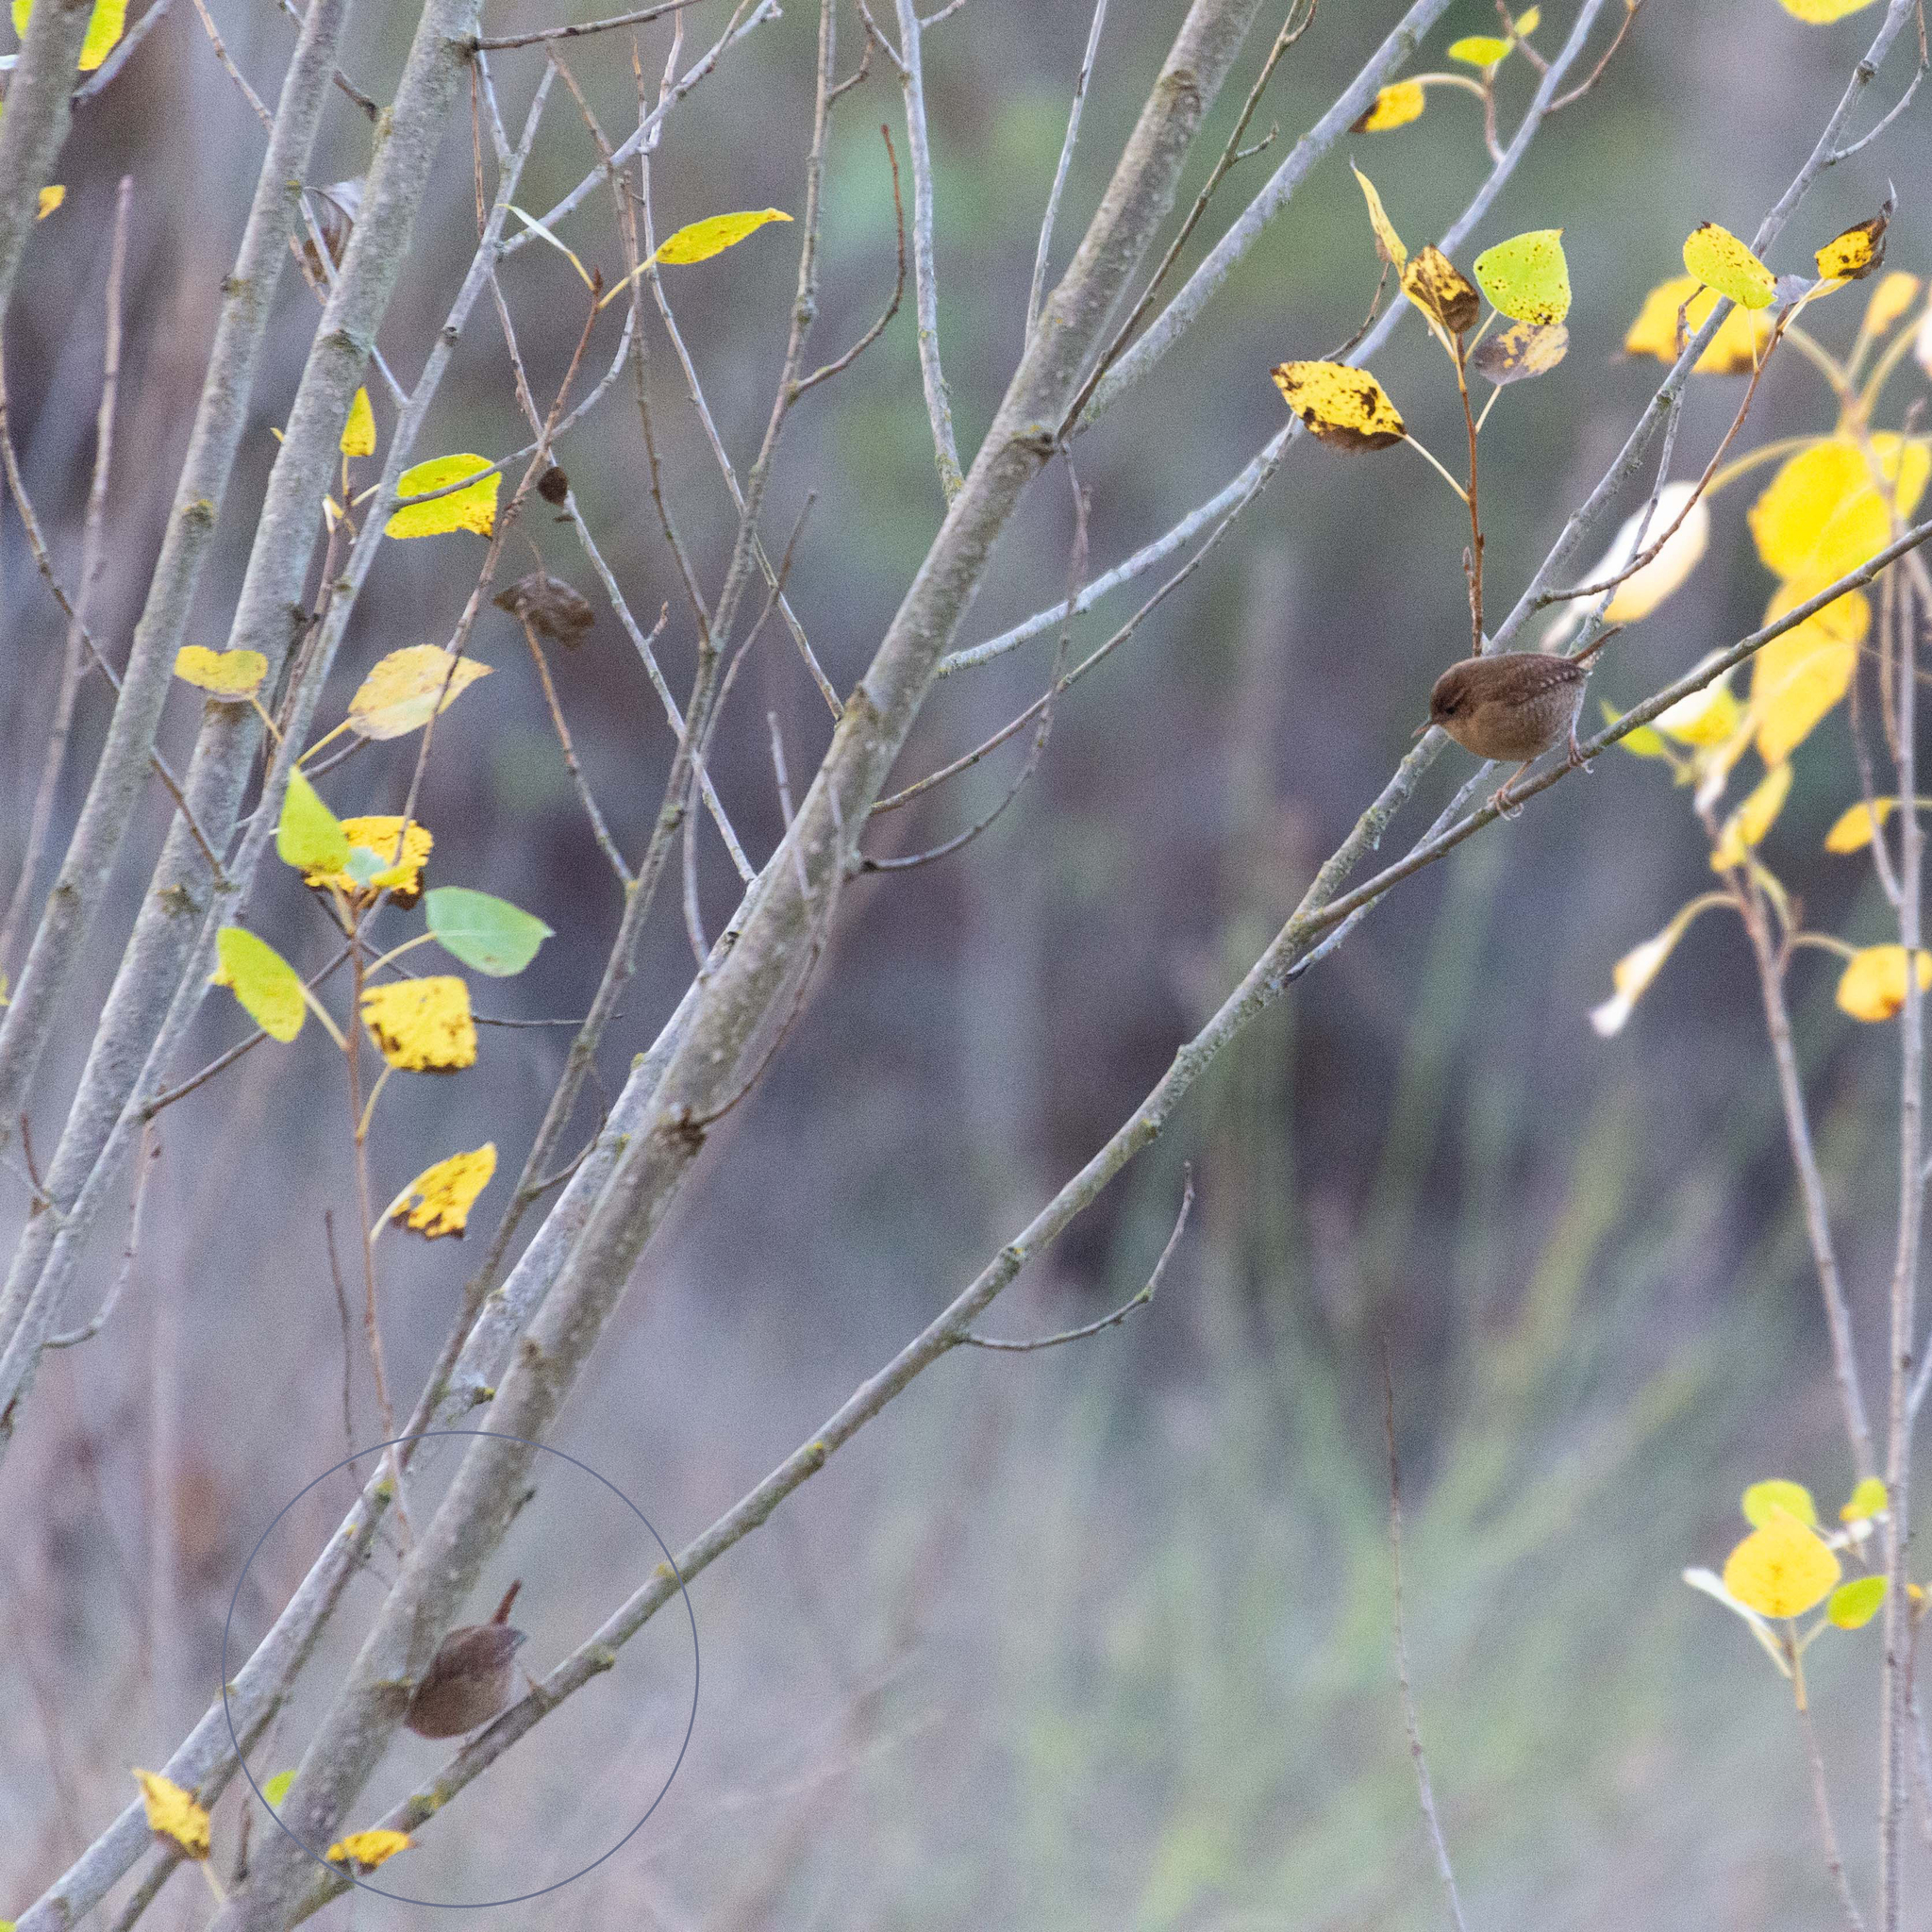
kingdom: Animalia
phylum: Chordata
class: Aves
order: Passeriformes
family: Troglodytidae
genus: Troglodytes
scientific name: Troglodytes troglodytes
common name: Eurasian wren
